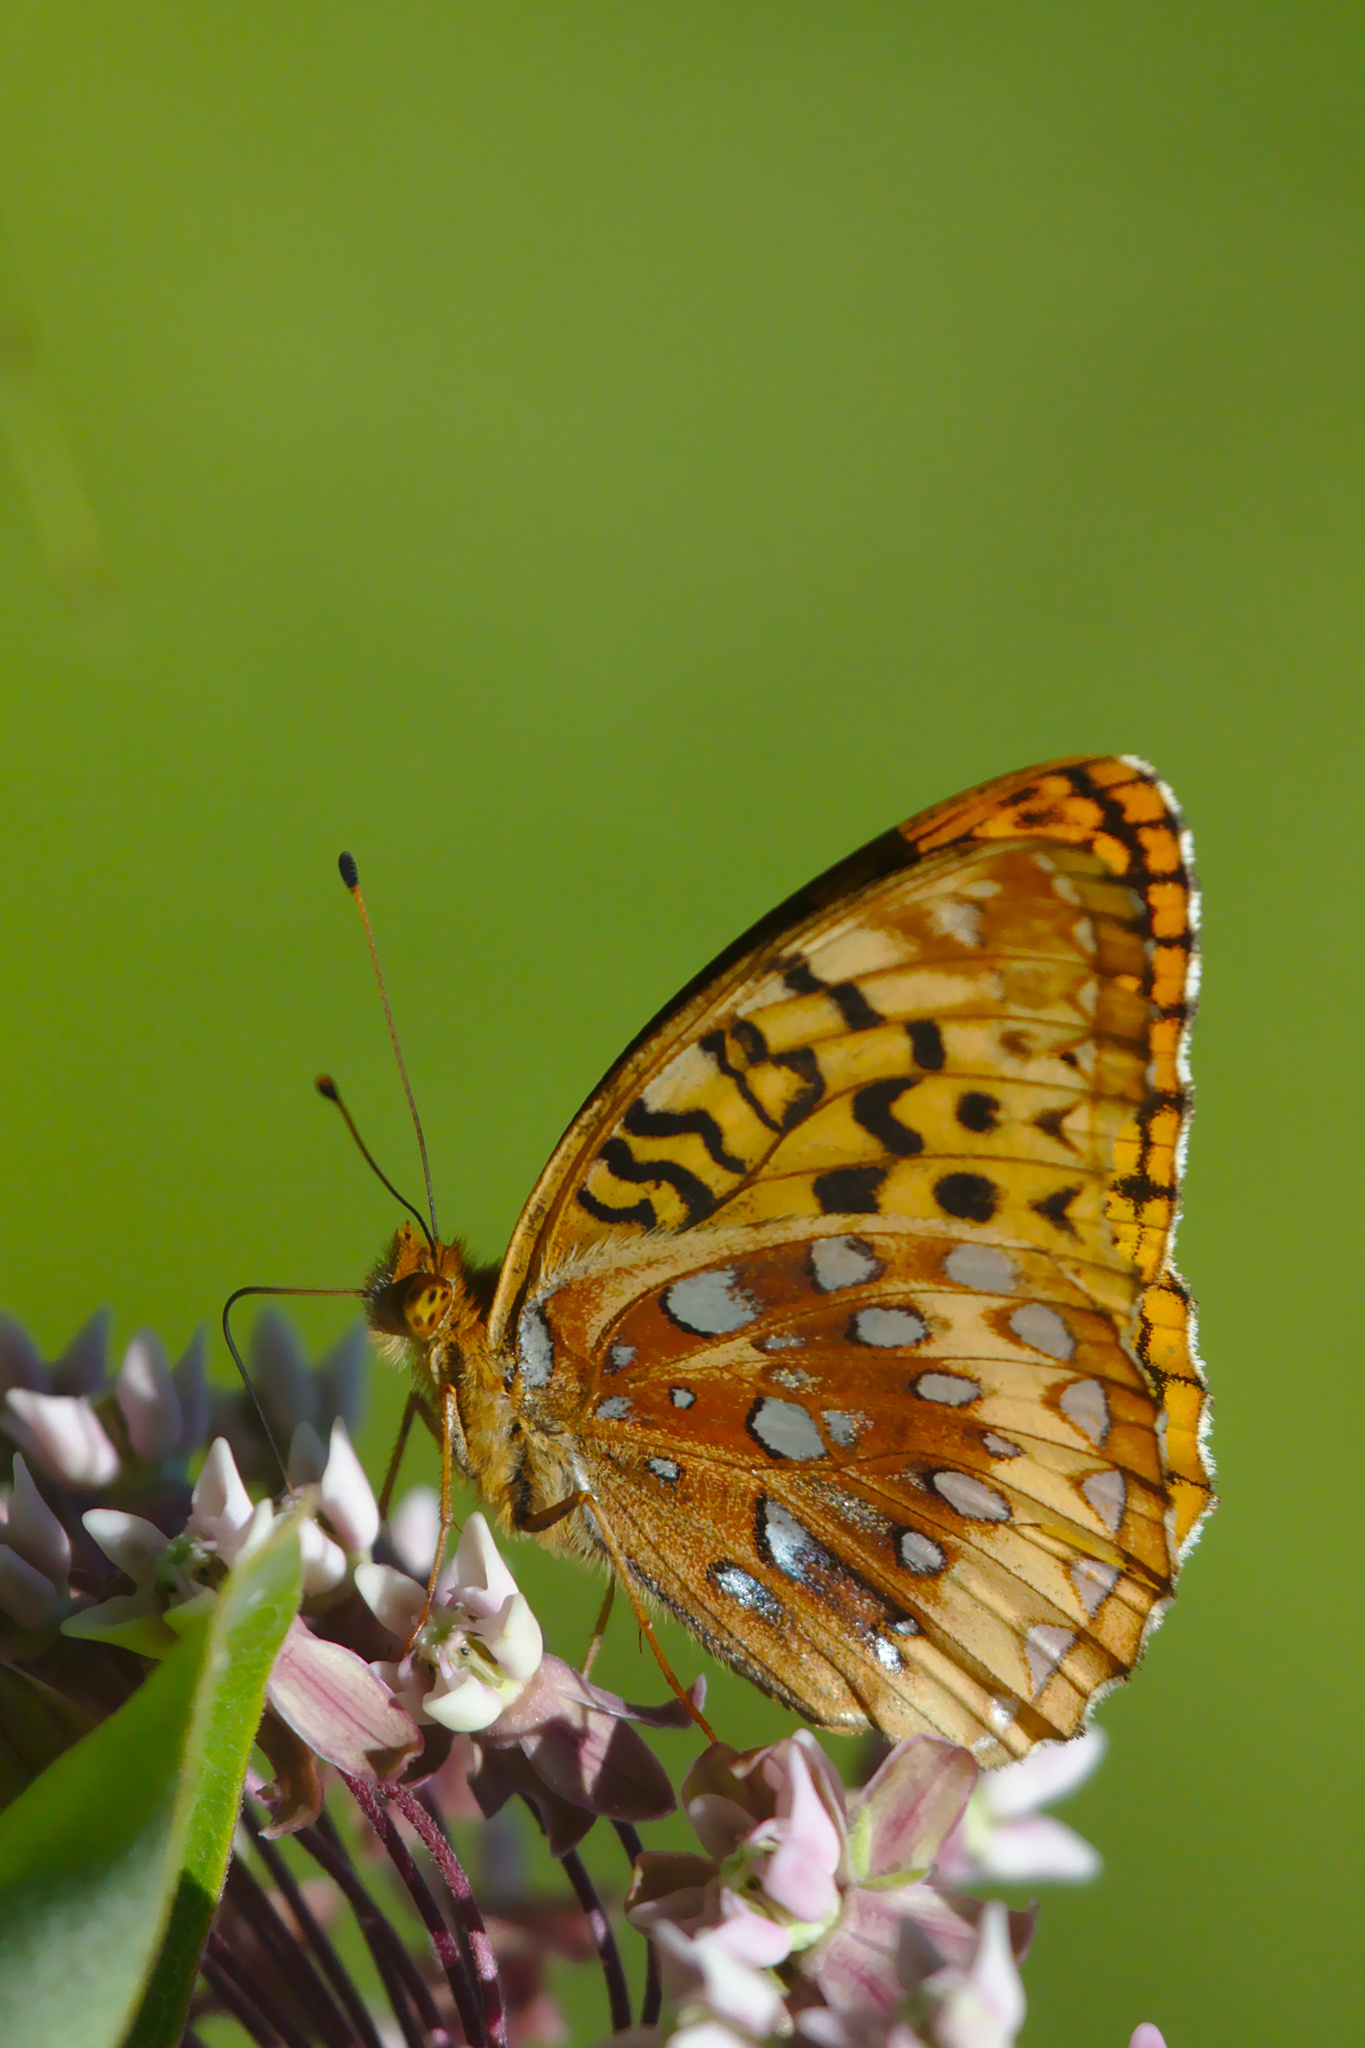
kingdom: Animalia
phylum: Arthropoda
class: Insecta
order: Lepidoptera
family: Nymphalidae
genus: Speyeria
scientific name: Speyeria cybele
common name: Great spangled fritillary
